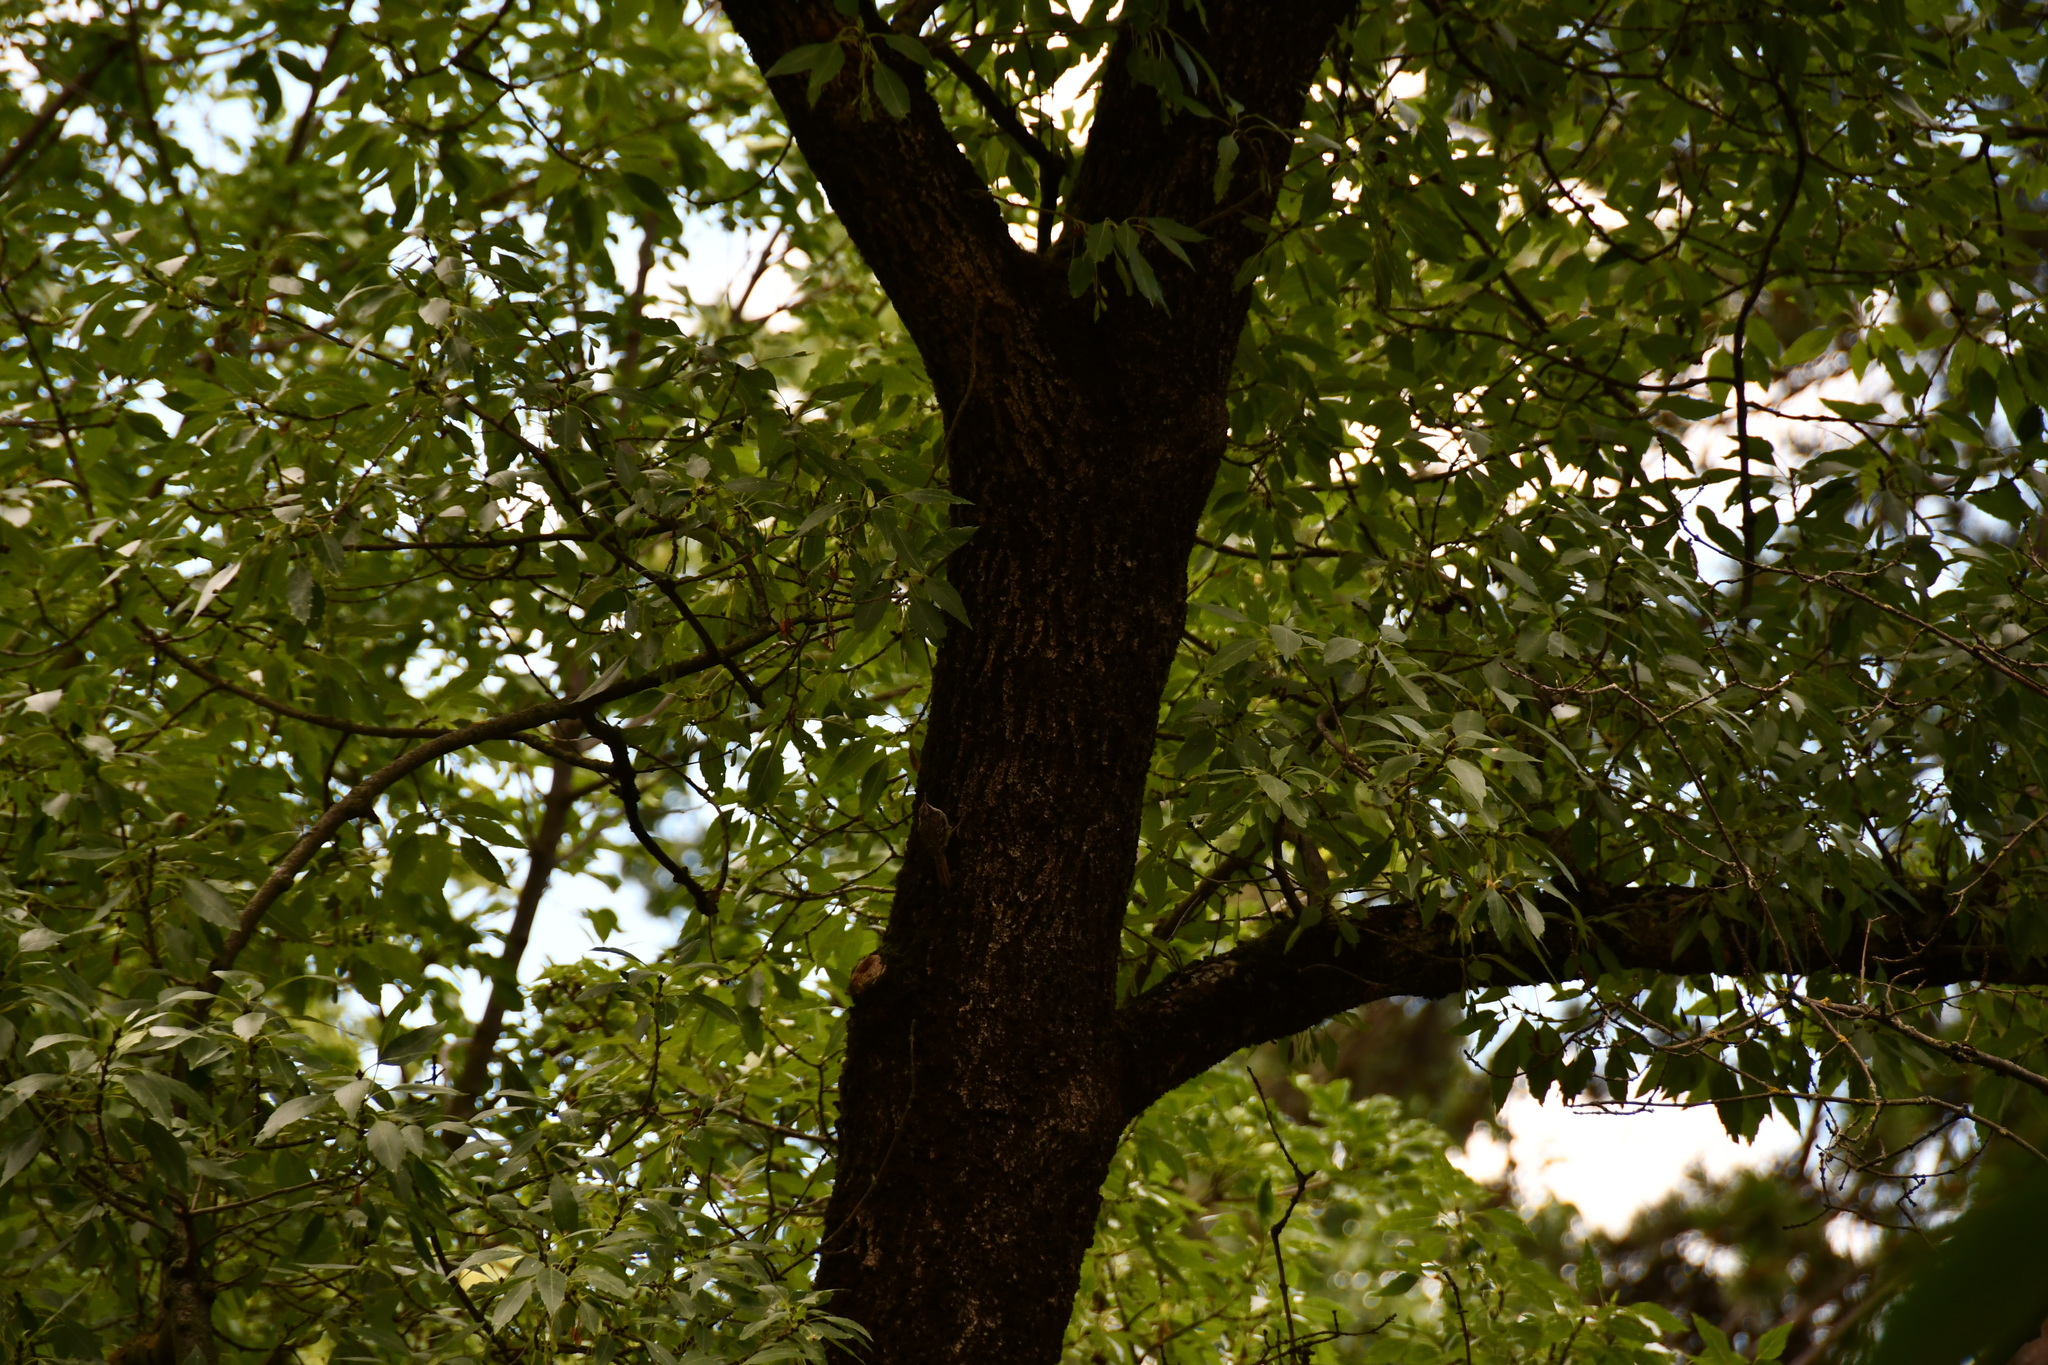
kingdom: Animalia
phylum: Chordata
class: Aves
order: Passeriformes
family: Certhiidae
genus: Certhia
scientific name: Certhia
